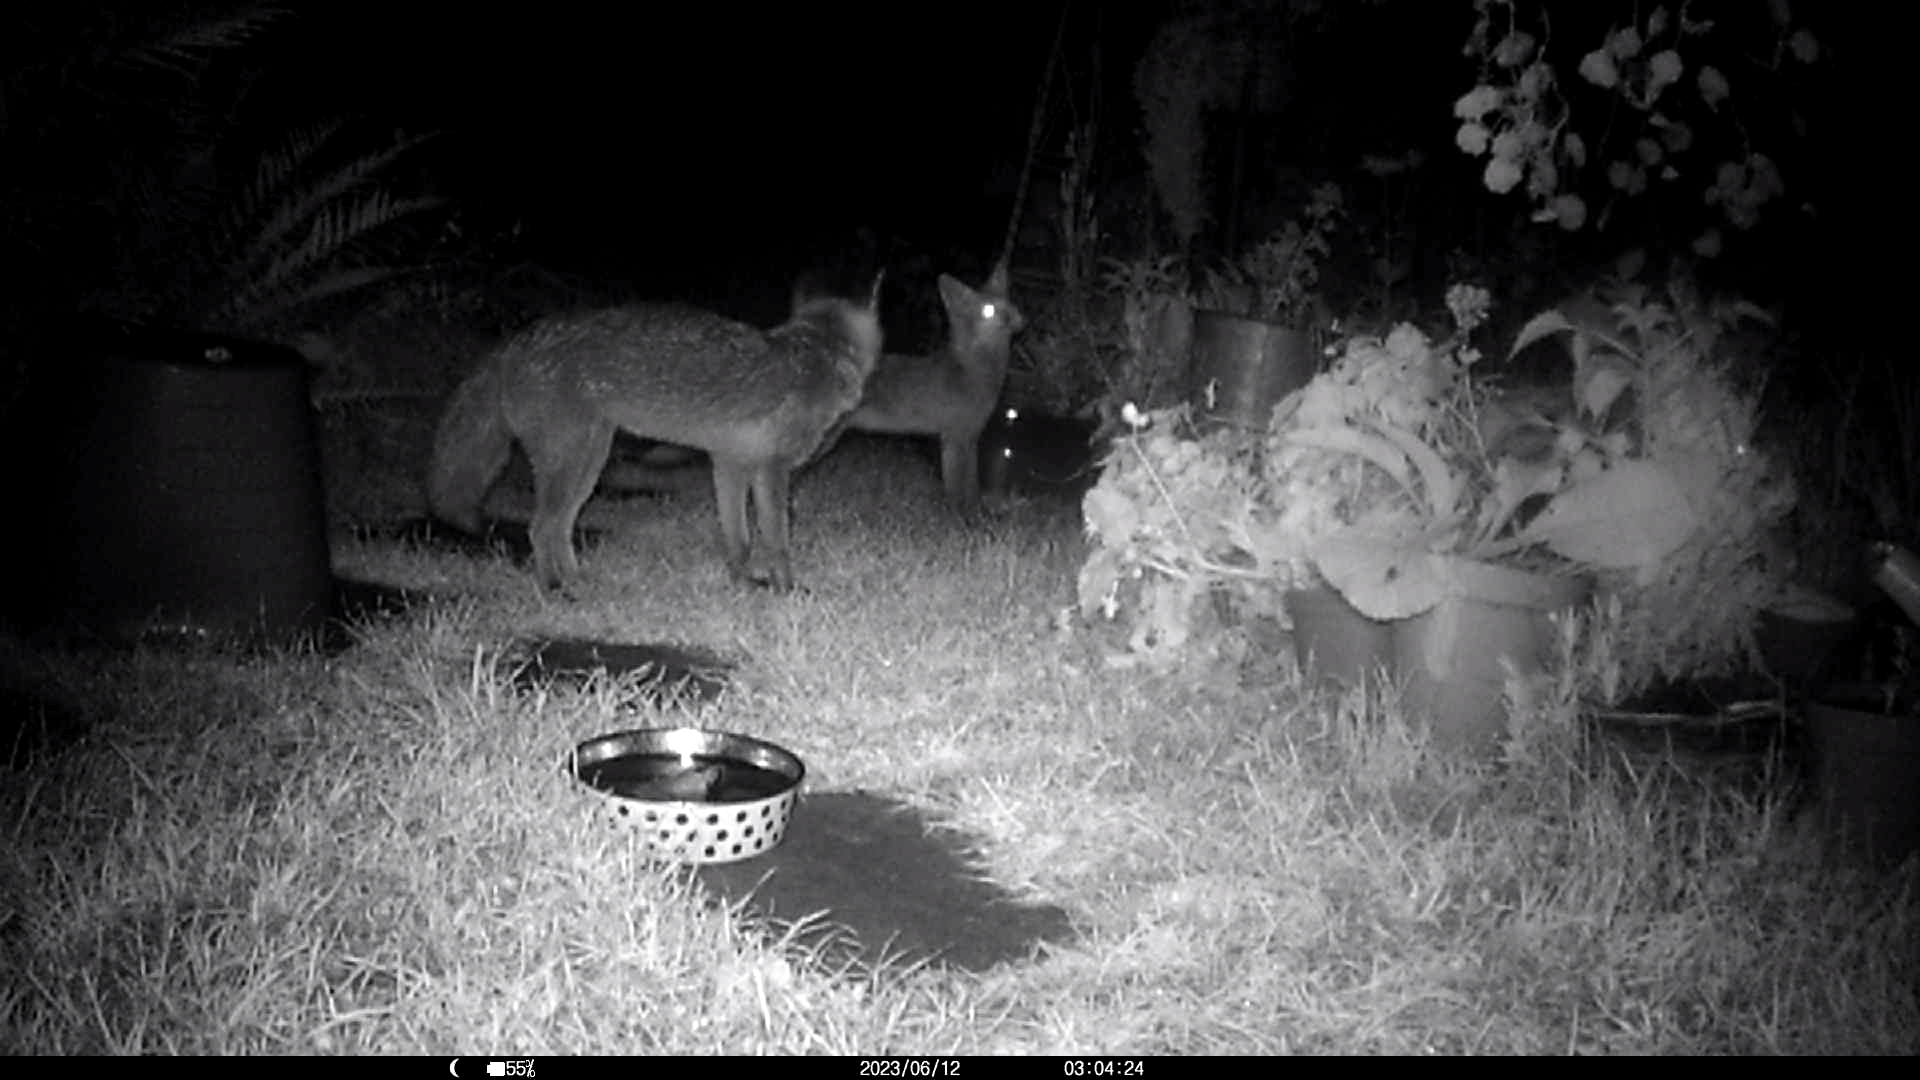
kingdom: Animalia
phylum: Chordata
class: Mammalia
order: Carnivora
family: Canidae
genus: Vulpes
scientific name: Vulpes vulpes
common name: Red fox
